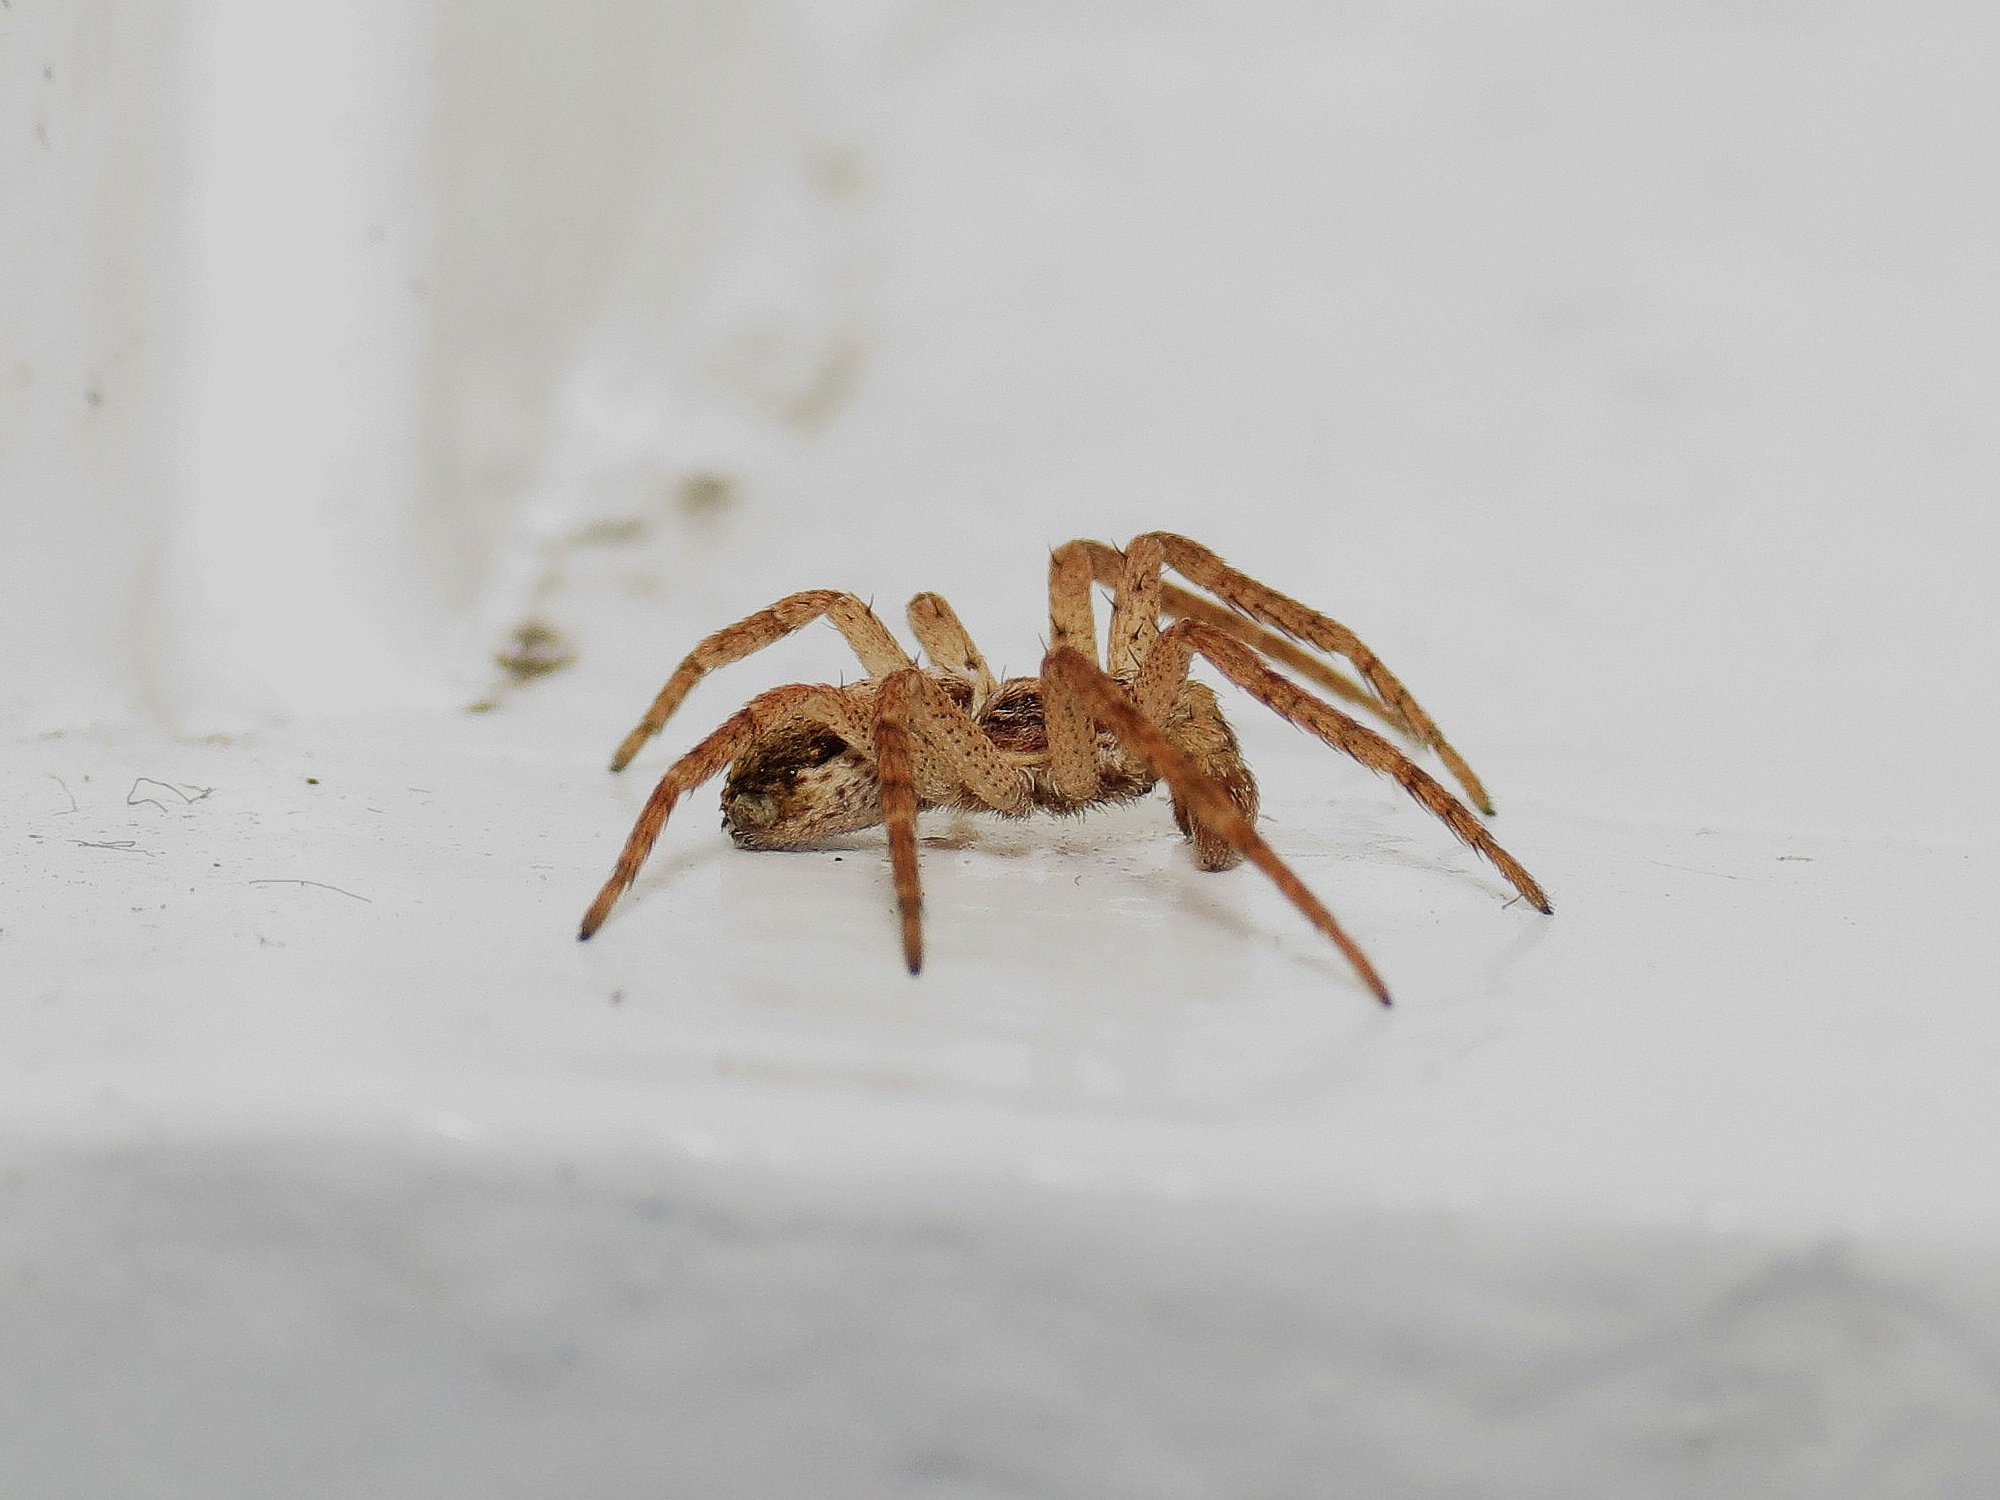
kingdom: Animalia
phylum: Arthropoda
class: Arachnida
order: Araneae
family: Philodromidae
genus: Philodromus
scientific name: Philodromus dispar
